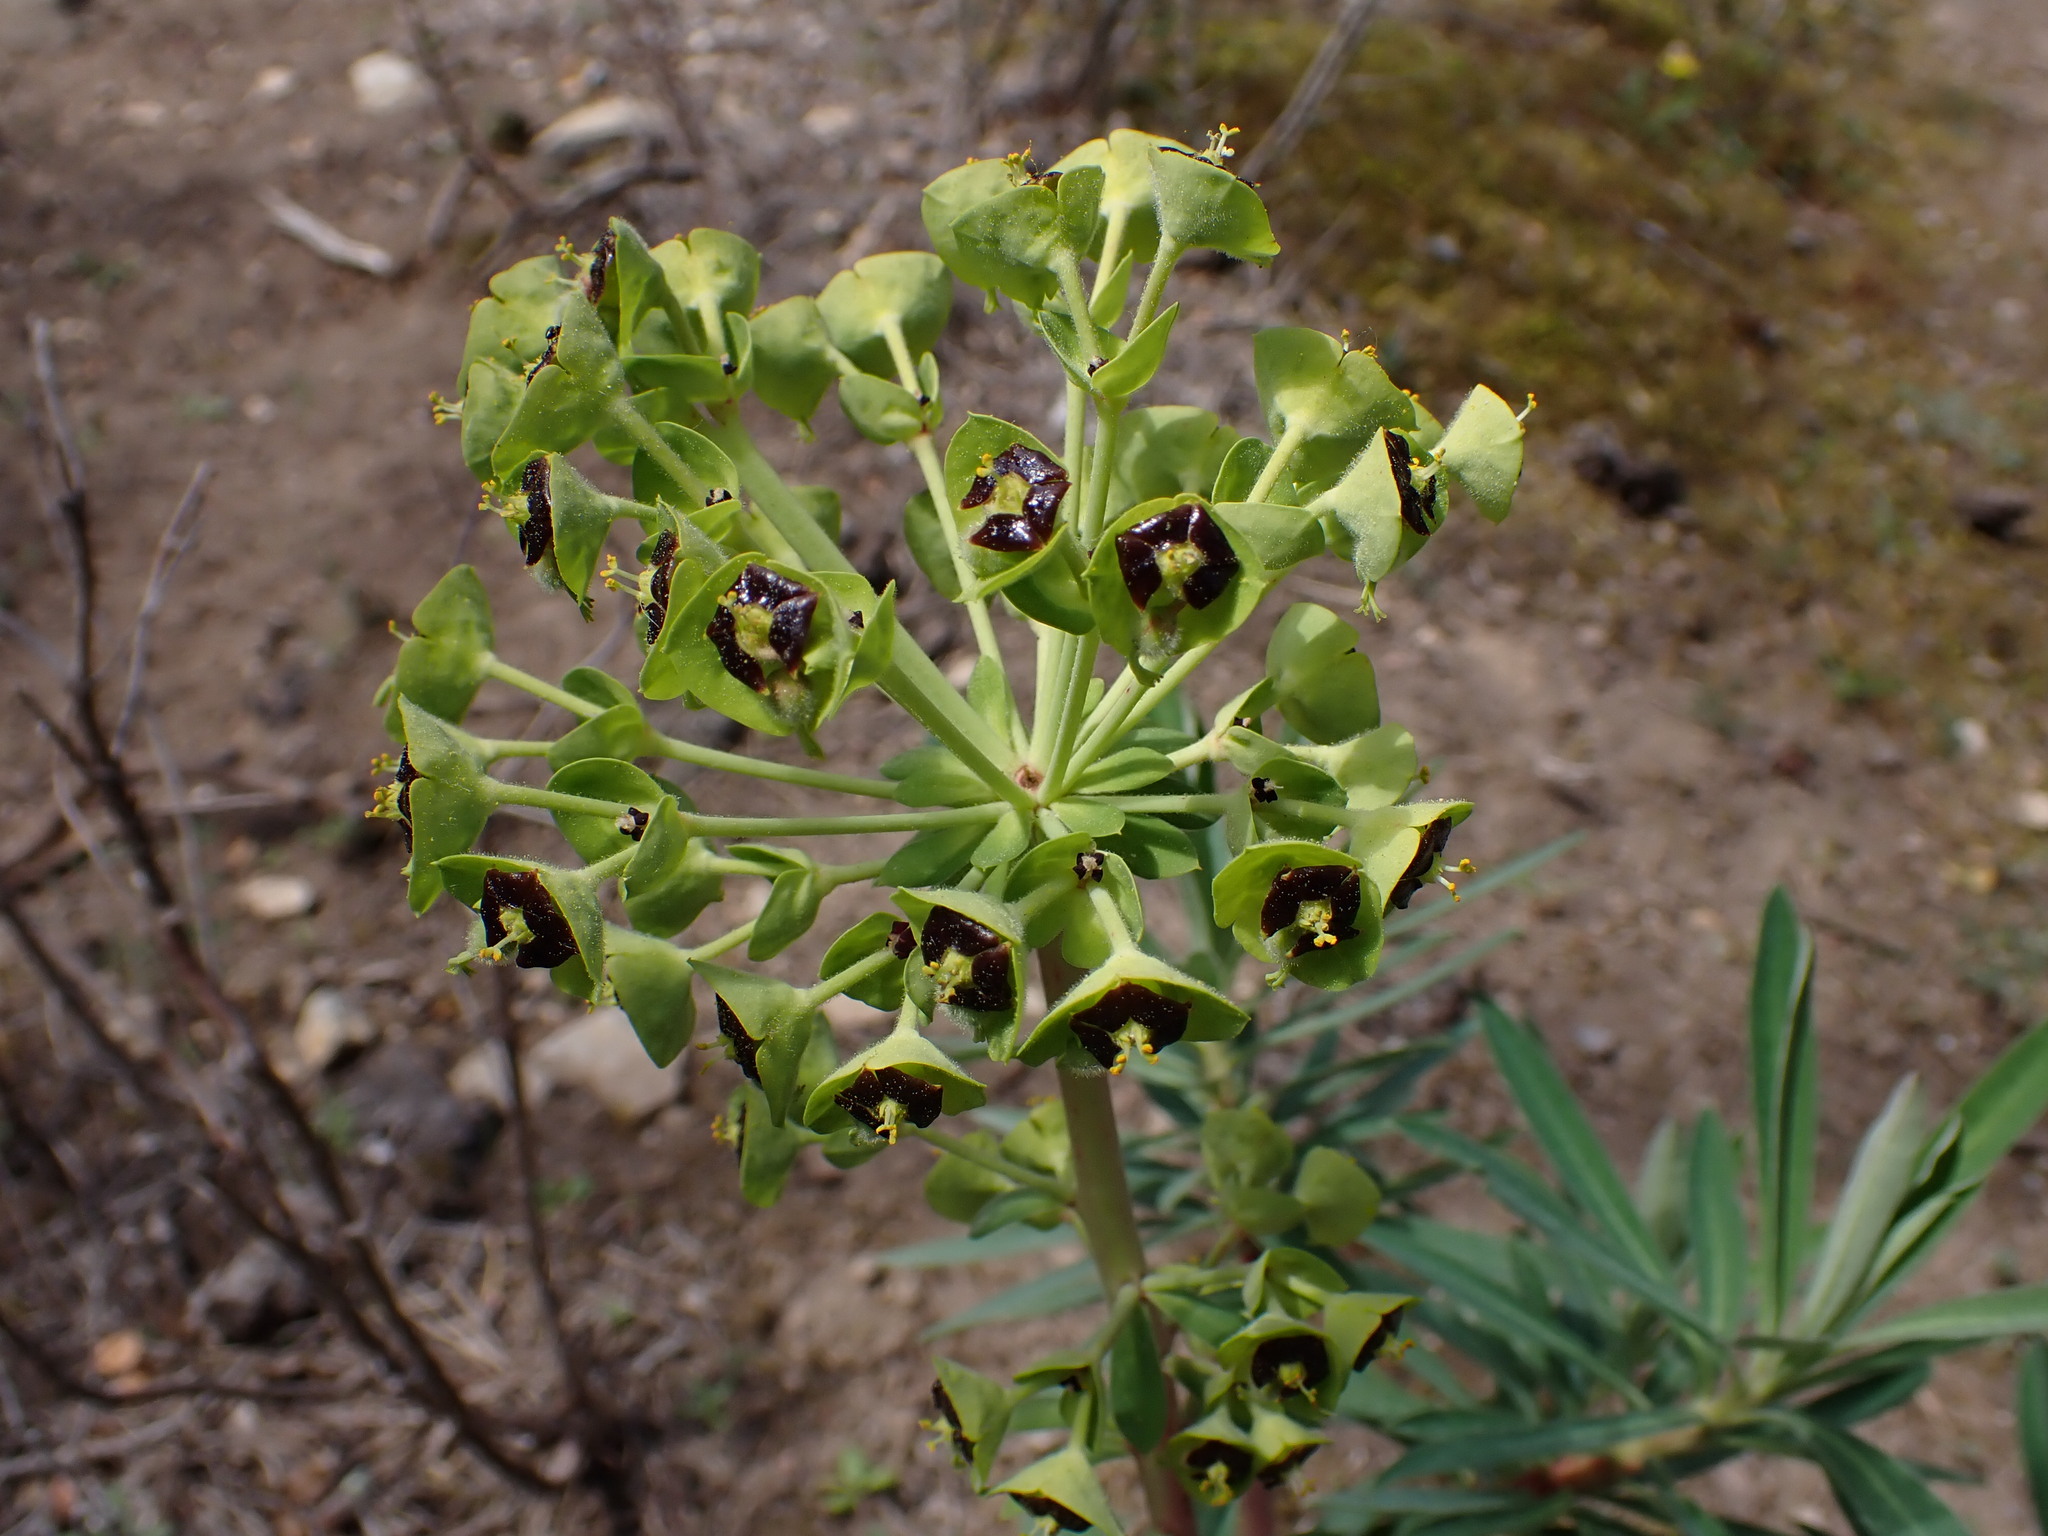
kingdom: Plantae
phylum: Tracheophyta
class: Magnoliopsida
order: Malpighiales
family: Euphorbiaceae
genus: Euphorbia
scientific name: Euphorbia characias
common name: Mediterranean spurge
